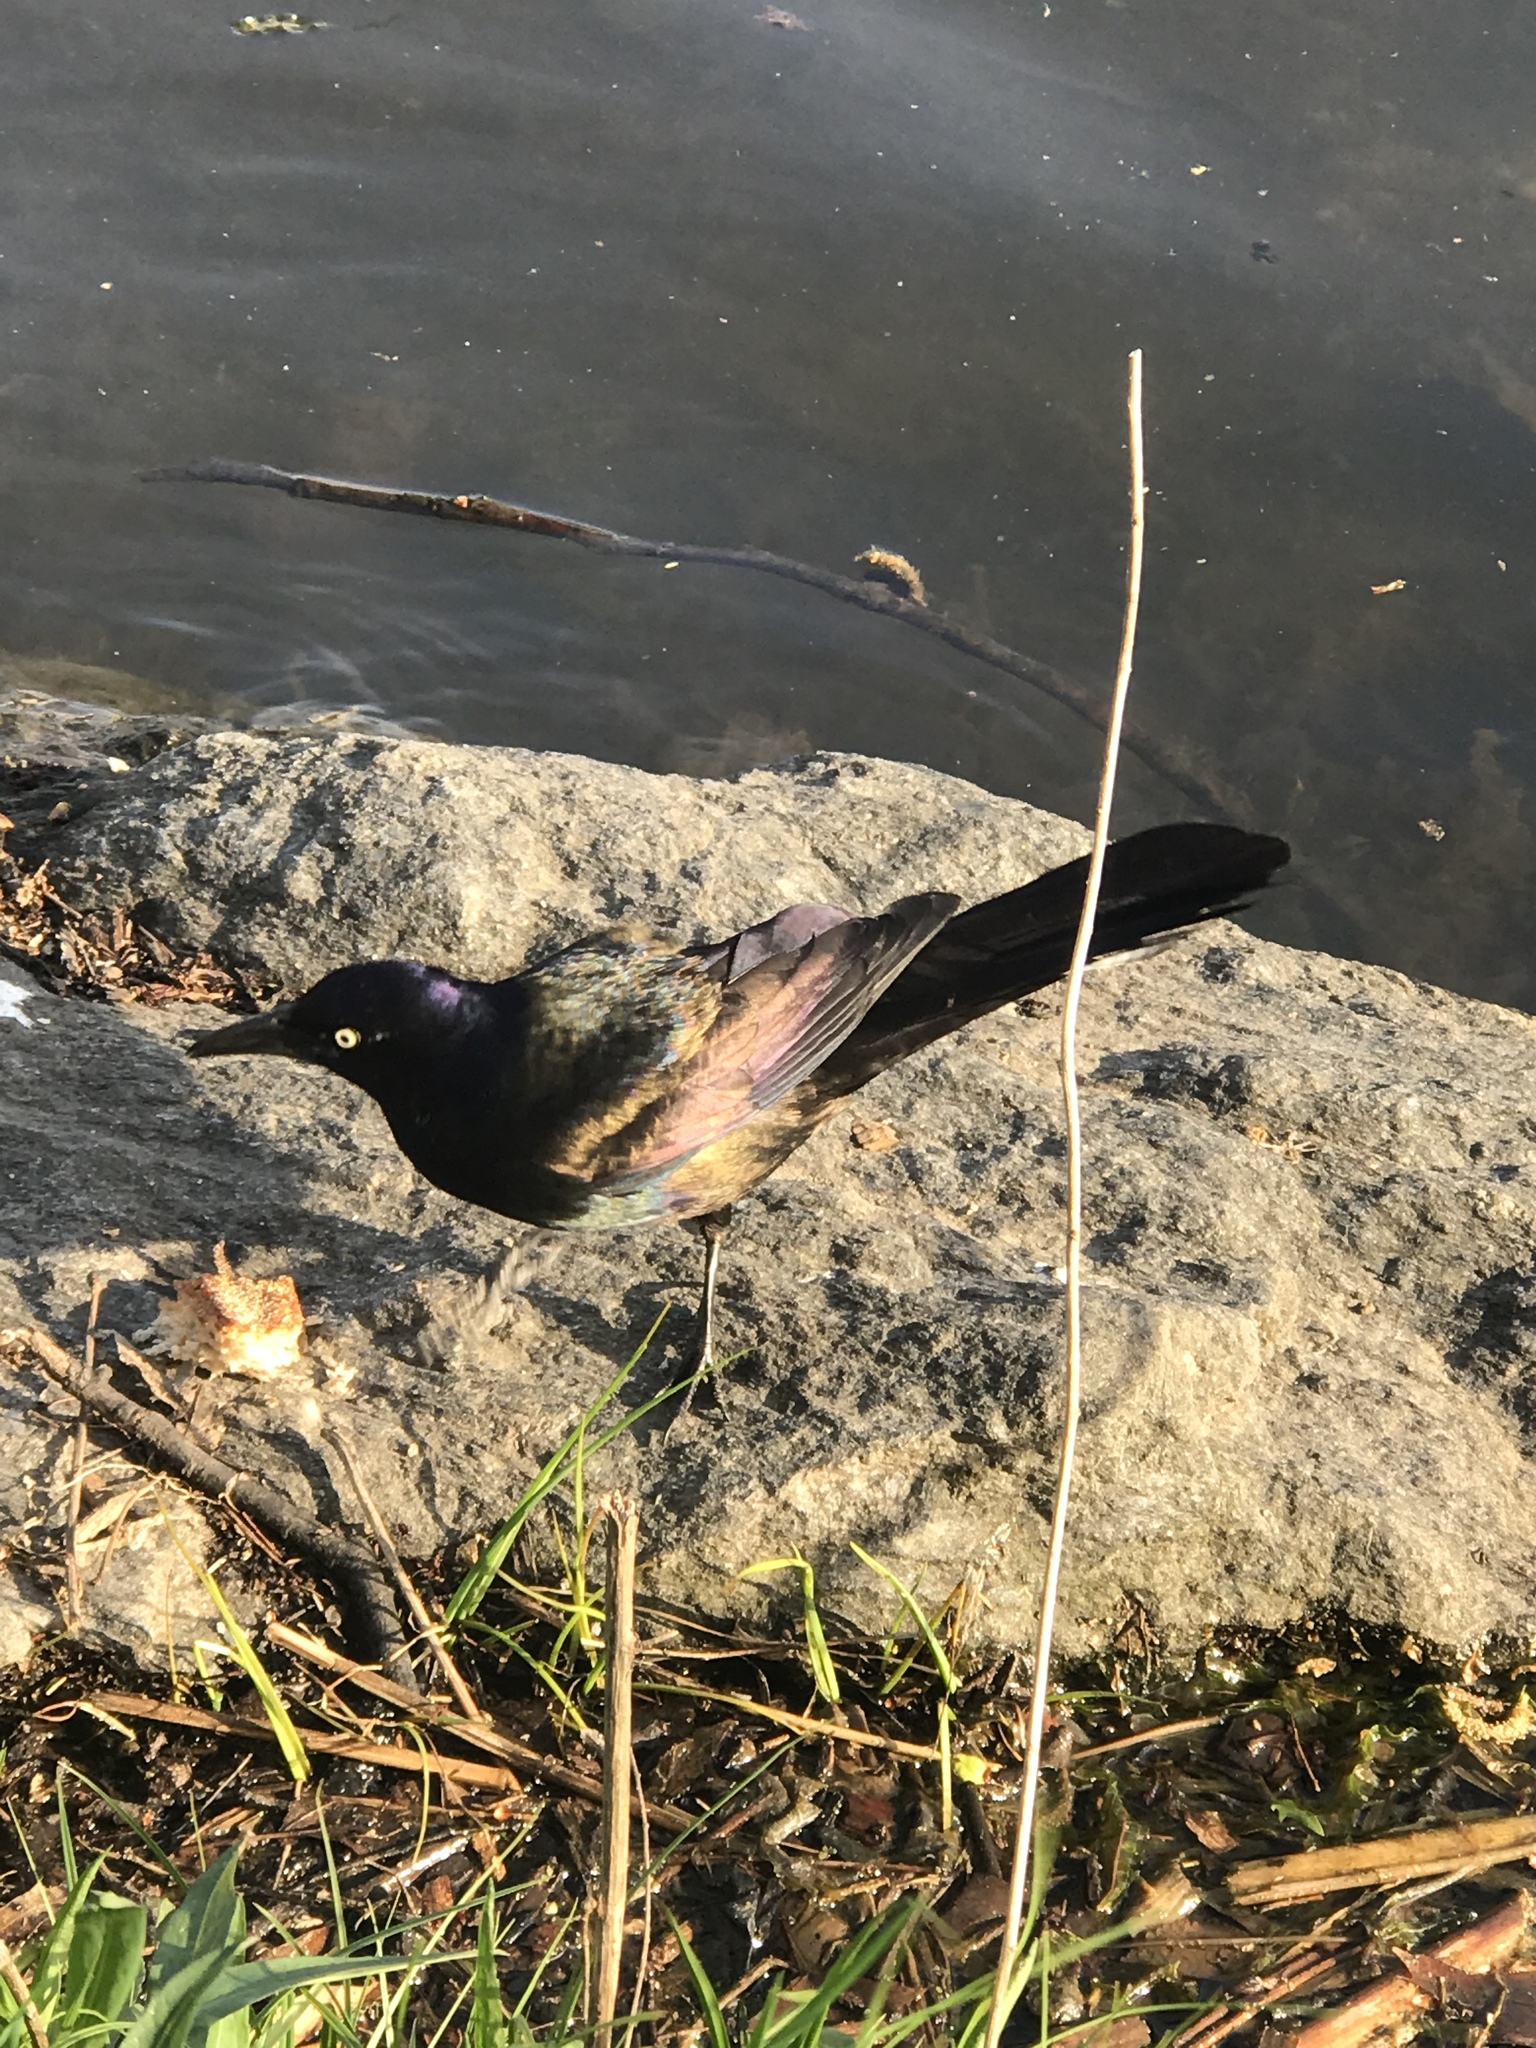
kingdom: Animalia
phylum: Chordata
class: Aves
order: Passeriformes
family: Icteridae
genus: Quiscalus
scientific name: Quiscalus quiscula
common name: Common grackle
